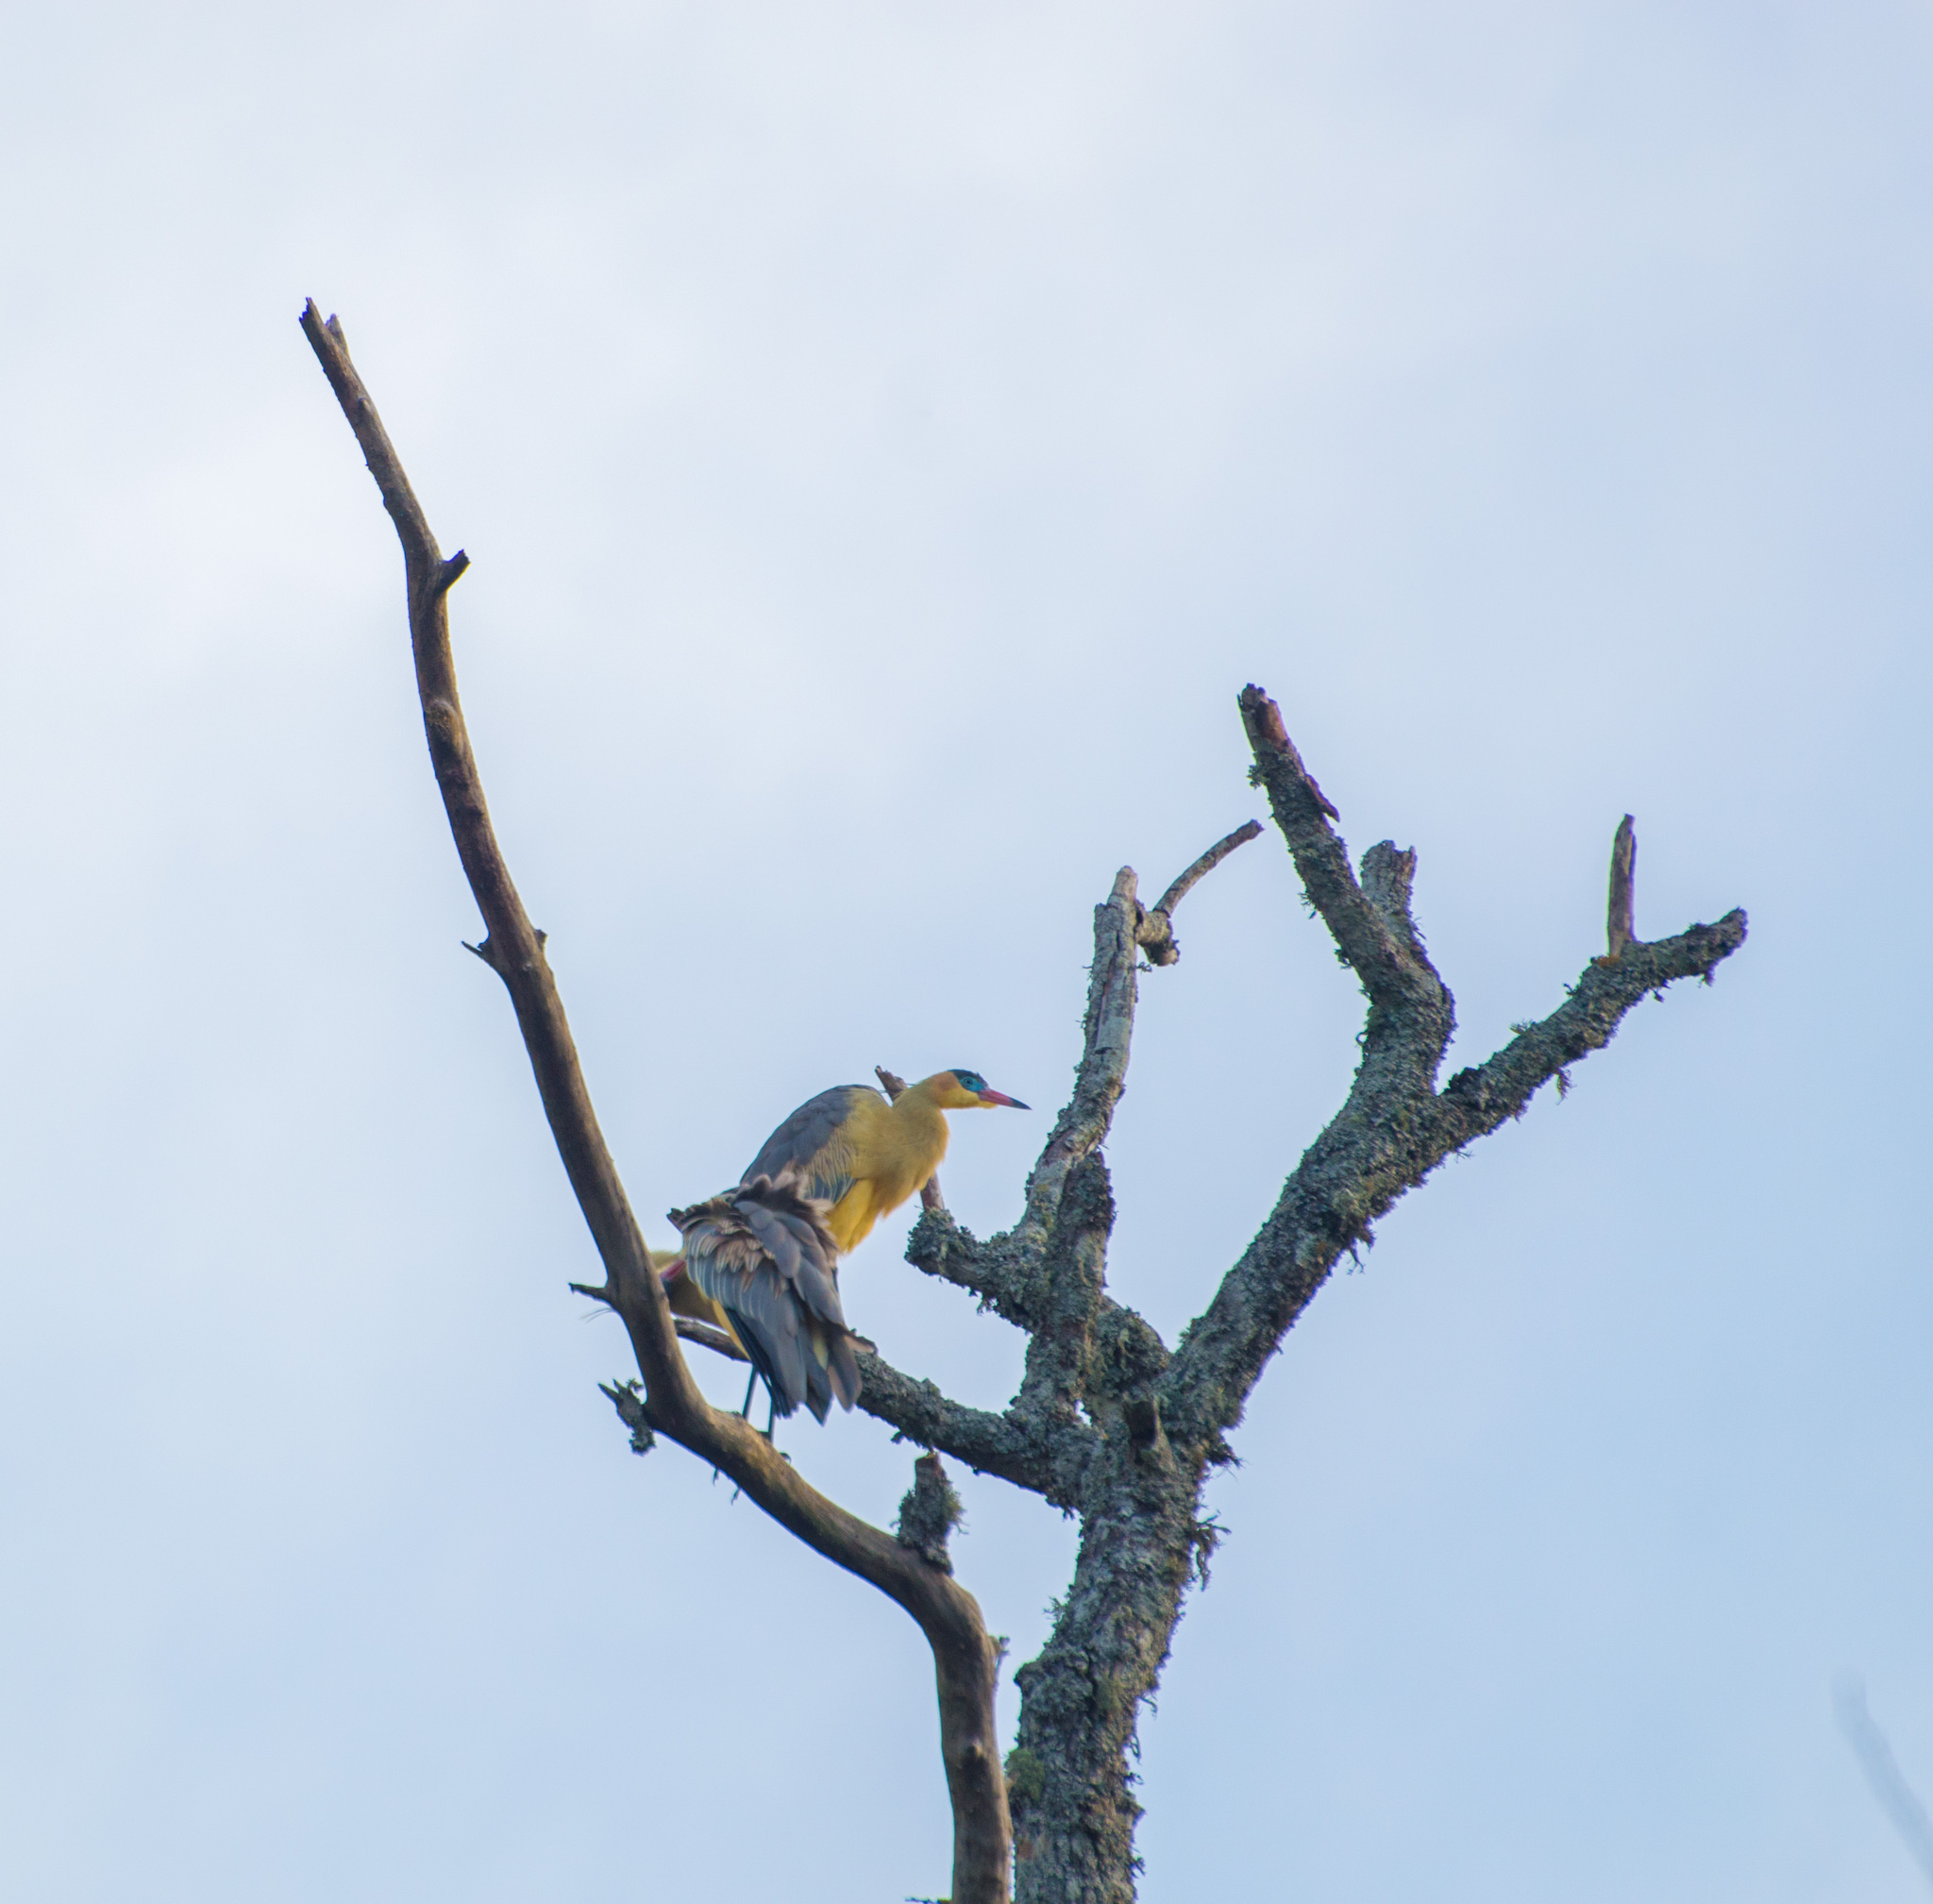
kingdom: Animalia
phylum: Chordata
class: Aves
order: Pelecaniformes
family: Ardeidae
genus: Syrigma
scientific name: Syrigma sibilatrix
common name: Whistling heron
